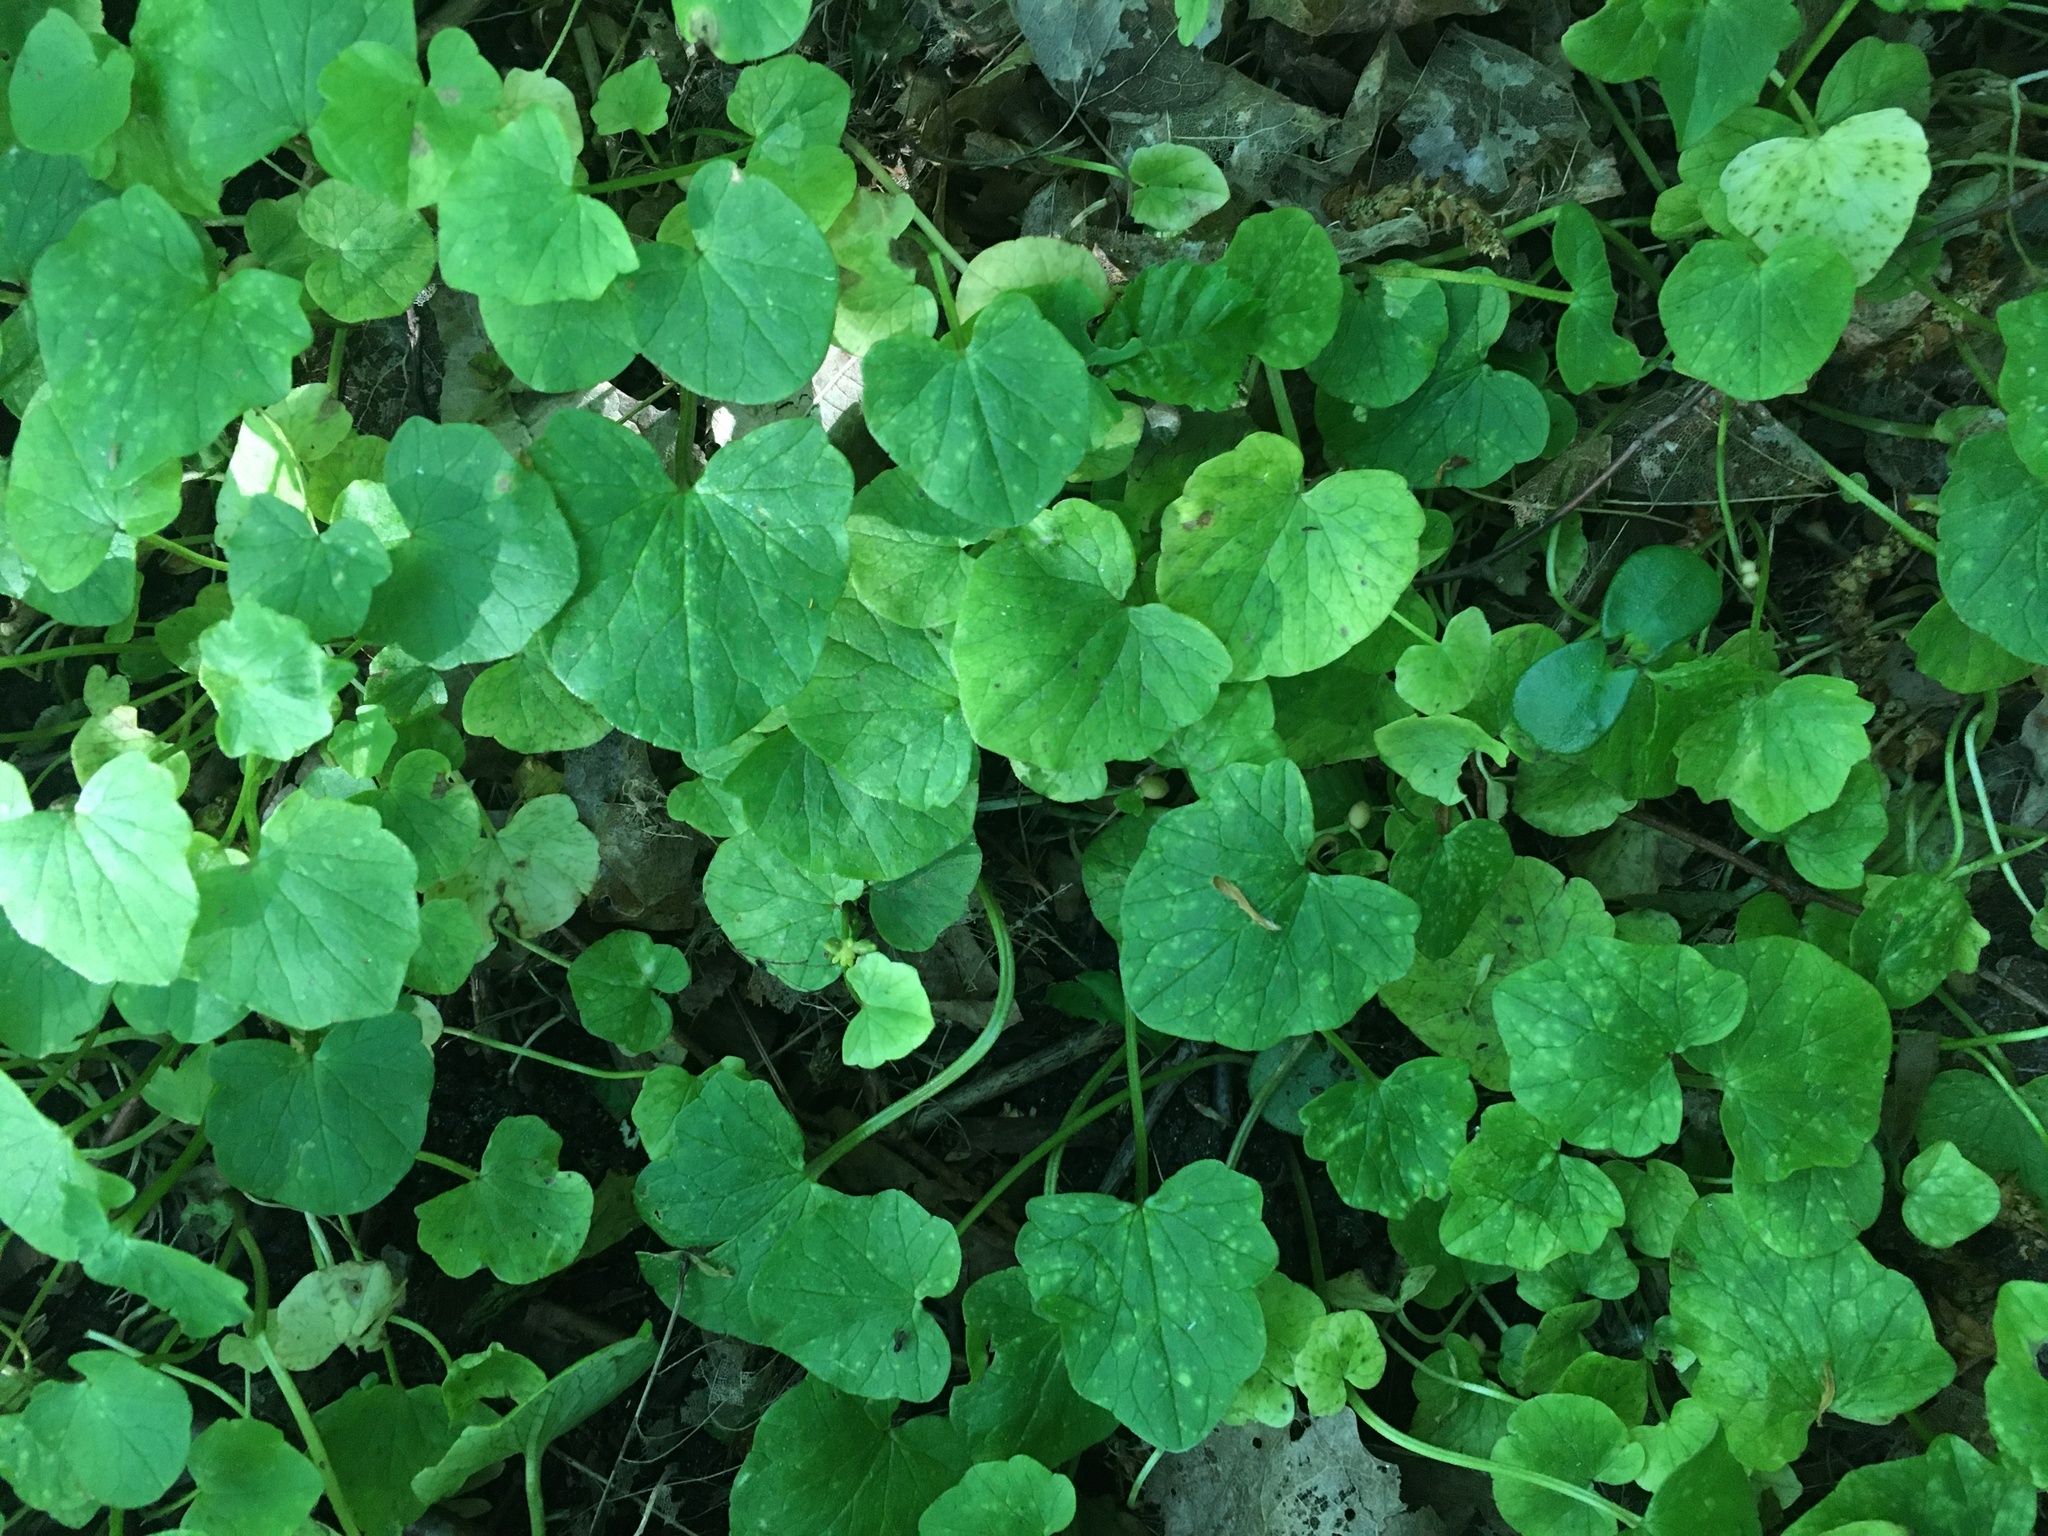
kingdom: Plantae
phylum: Tracheophyta
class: Magnoliopsida
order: Ranunculales
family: Ranunculaceae
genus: Ficaria
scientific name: Ficaria verna
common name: Lesser celandine
